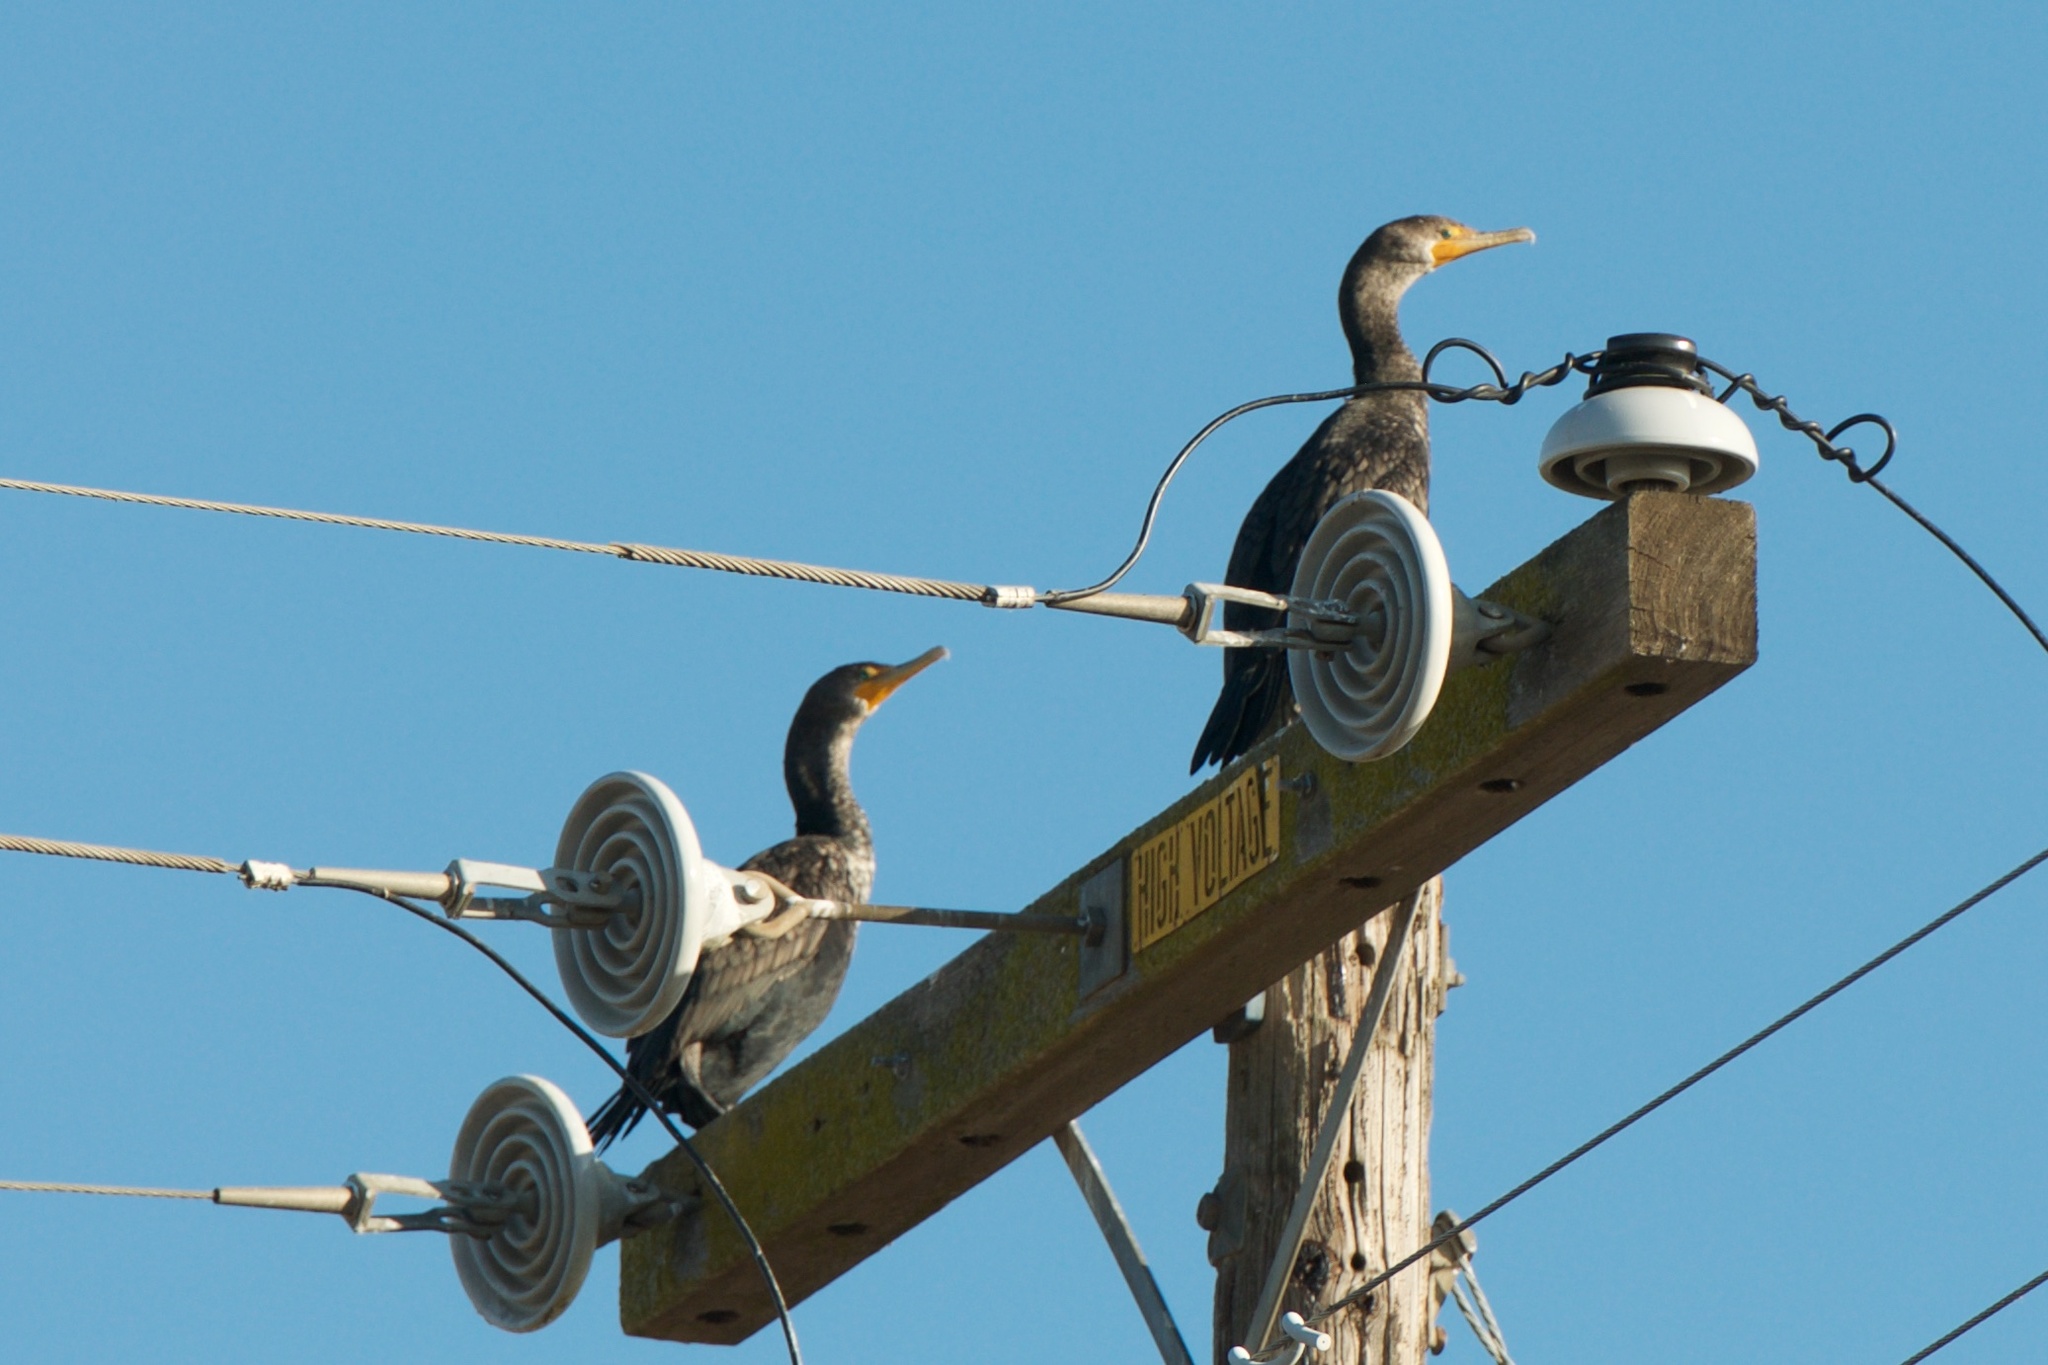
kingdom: Animalia
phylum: Chordata
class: Aves
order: Suliformes
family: Phalacrocoracidae
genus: Phalacrocorax
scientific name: Phalacrocorax auritus
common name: Double-crested cormorant
